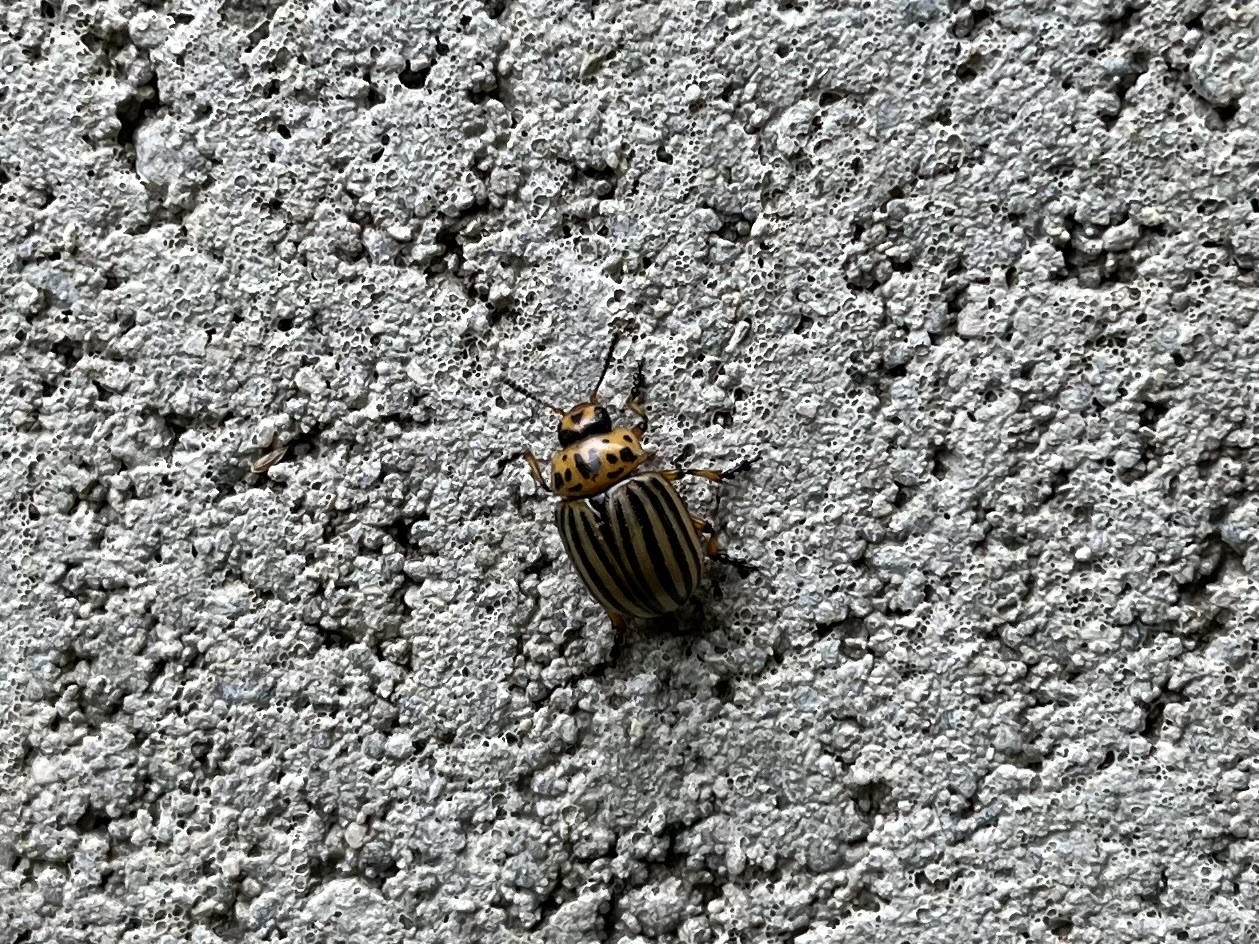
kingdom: Animalia
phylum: Arthropoda
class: Insecta
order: Coleoptera
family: Chrysomelidae
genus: Leptinotarsa
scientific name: Leptinotarsa decemlineata
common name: Colorado potato beetle
